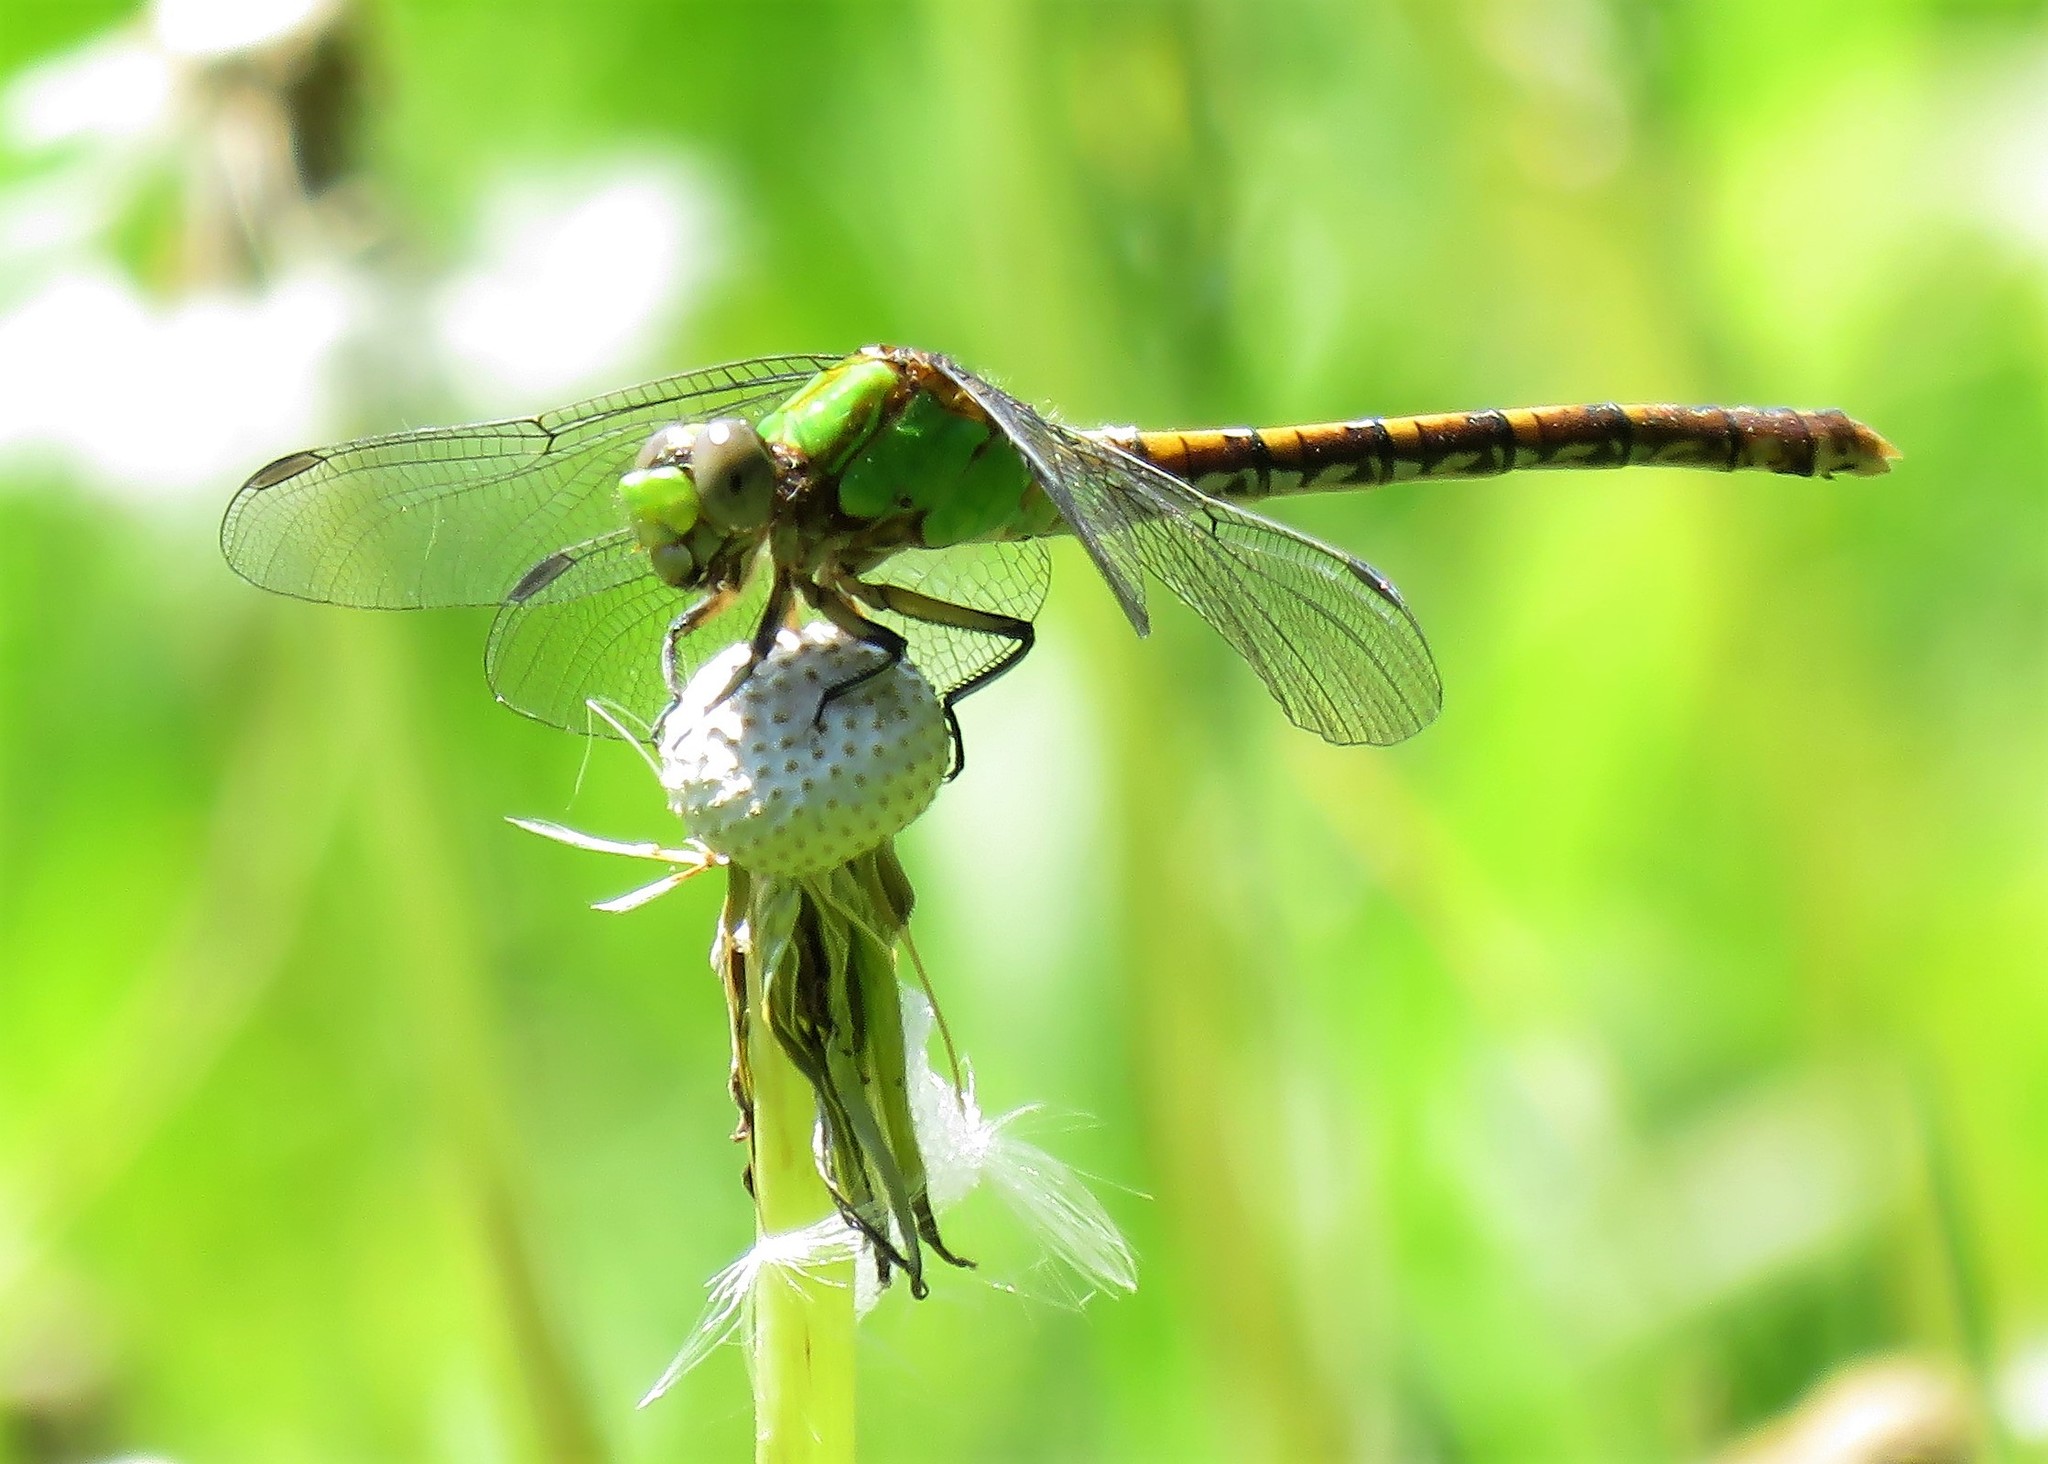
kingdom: Animalia
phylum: Arthropoda
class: Insecta
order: Odonata
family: Gomphidae
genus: Ophiogomphus
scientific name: Ophiogomphus rupinsulensis
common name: Rusty snaketail
